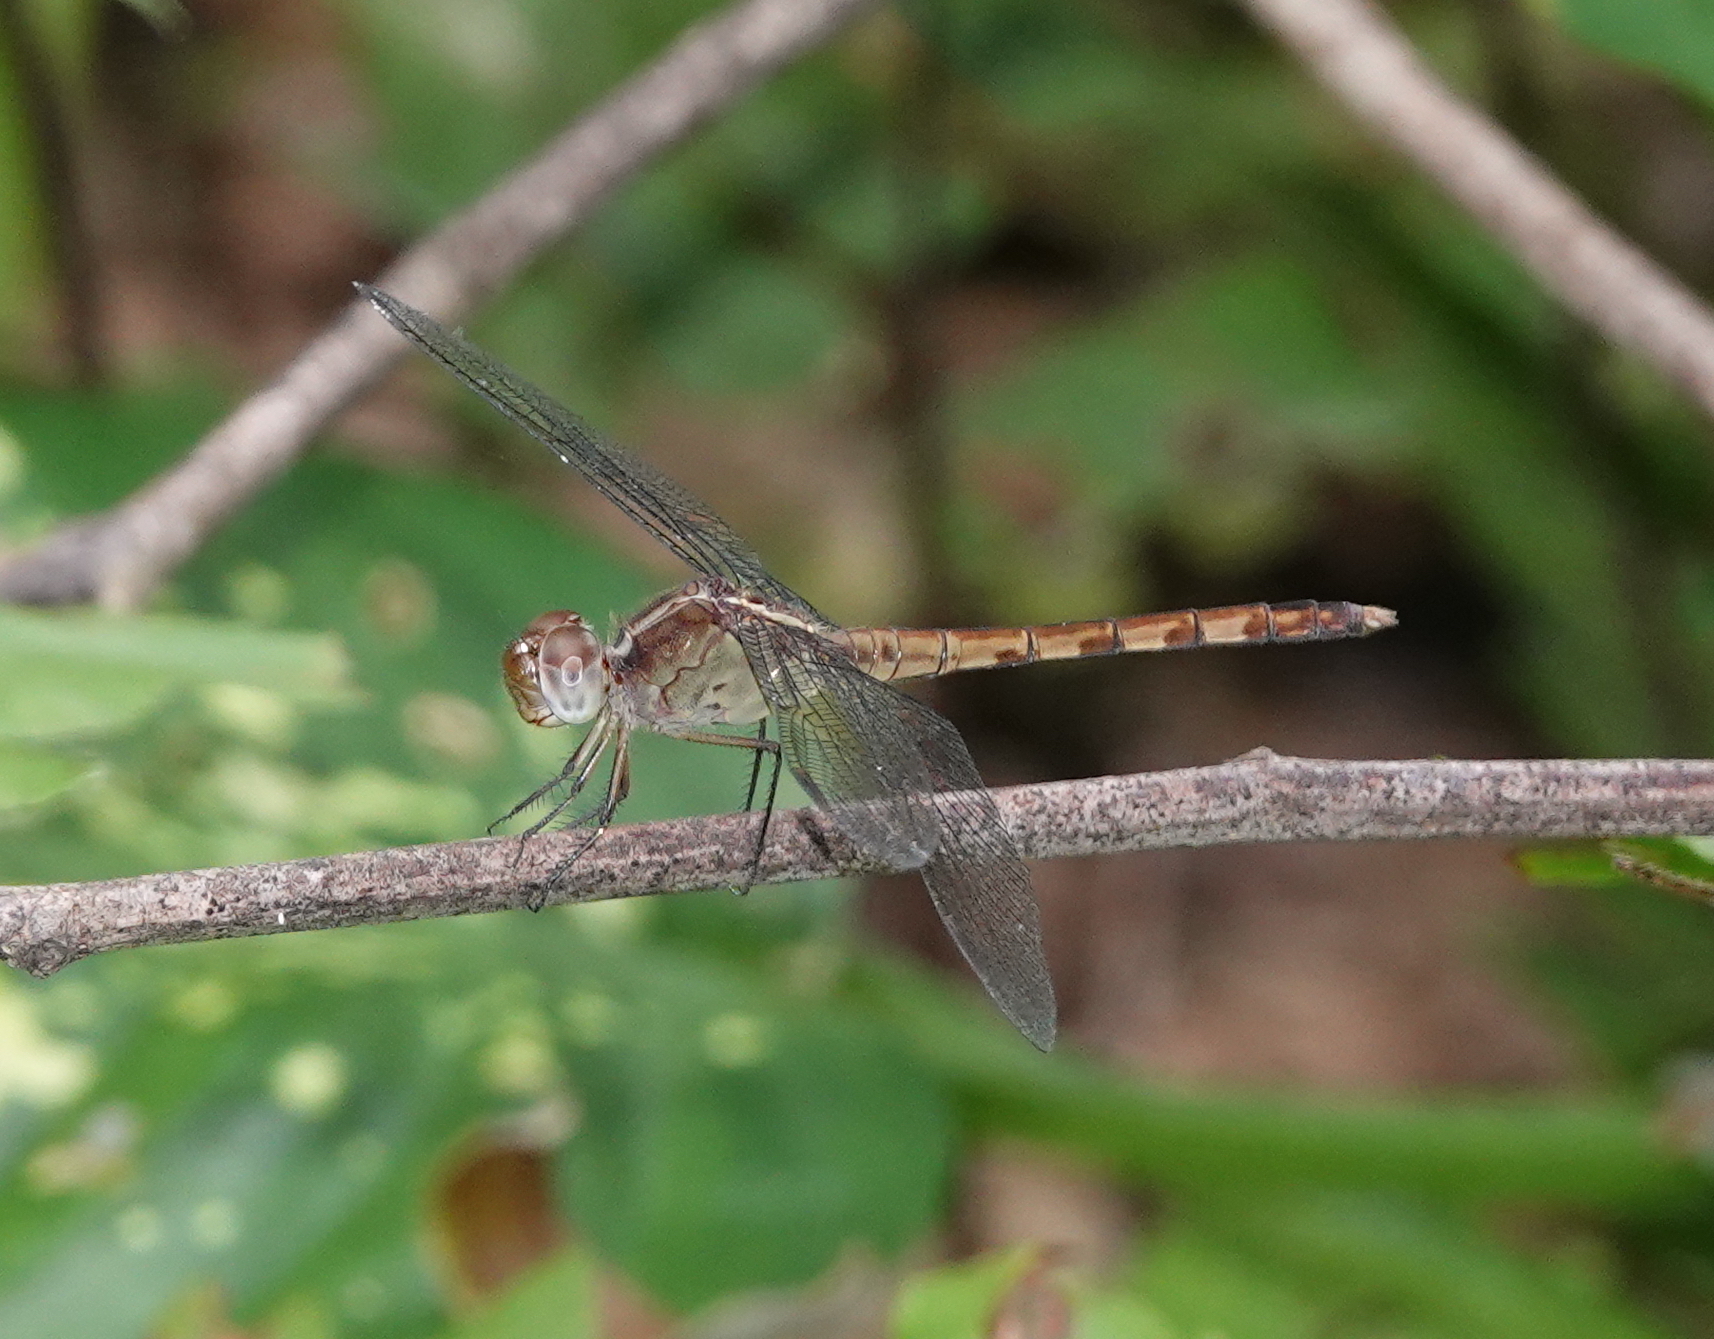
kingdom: Animalia
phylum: Arthropoda
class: Insecta
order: Odonata
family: Libellulidae
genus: Erythrodiplax
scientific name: Erythrodiplax umbrata
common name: Band-winged dragonlet
